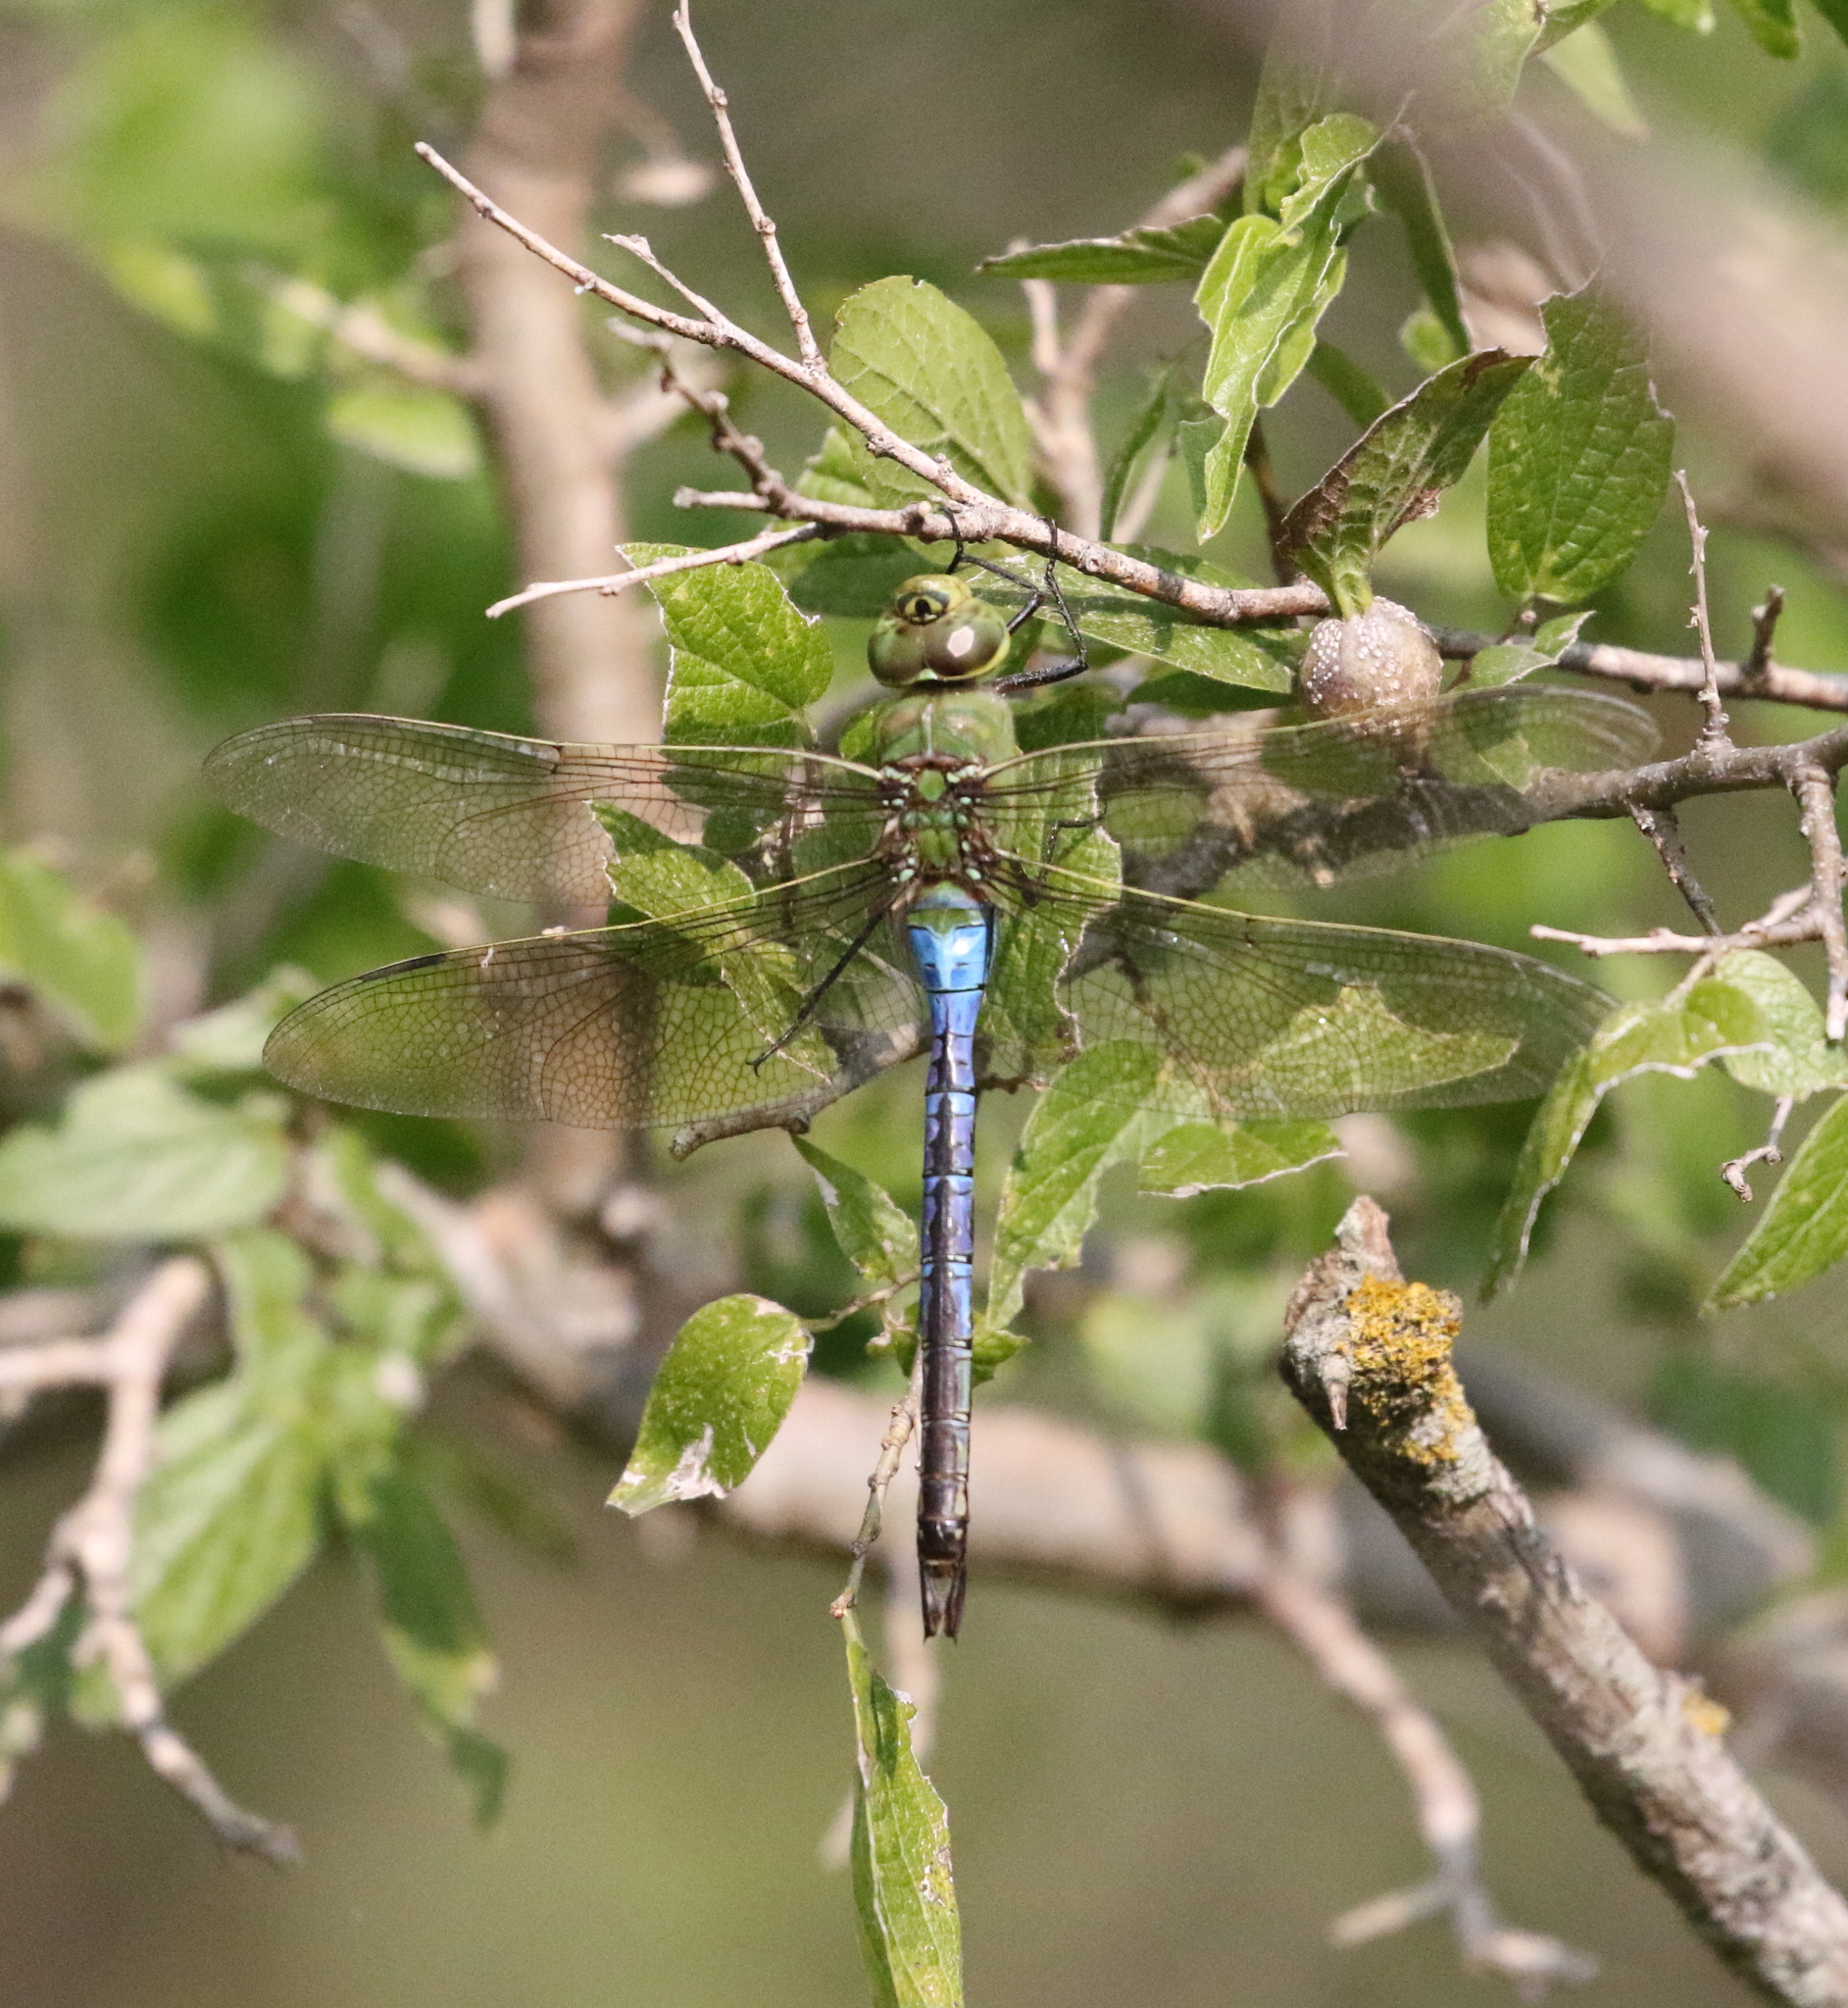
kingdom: Animalia
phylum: Arthropoda
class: Insecta
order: Odonata
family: Aeshnidae
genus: Anax
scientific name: Anax junius
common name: Common green darner
